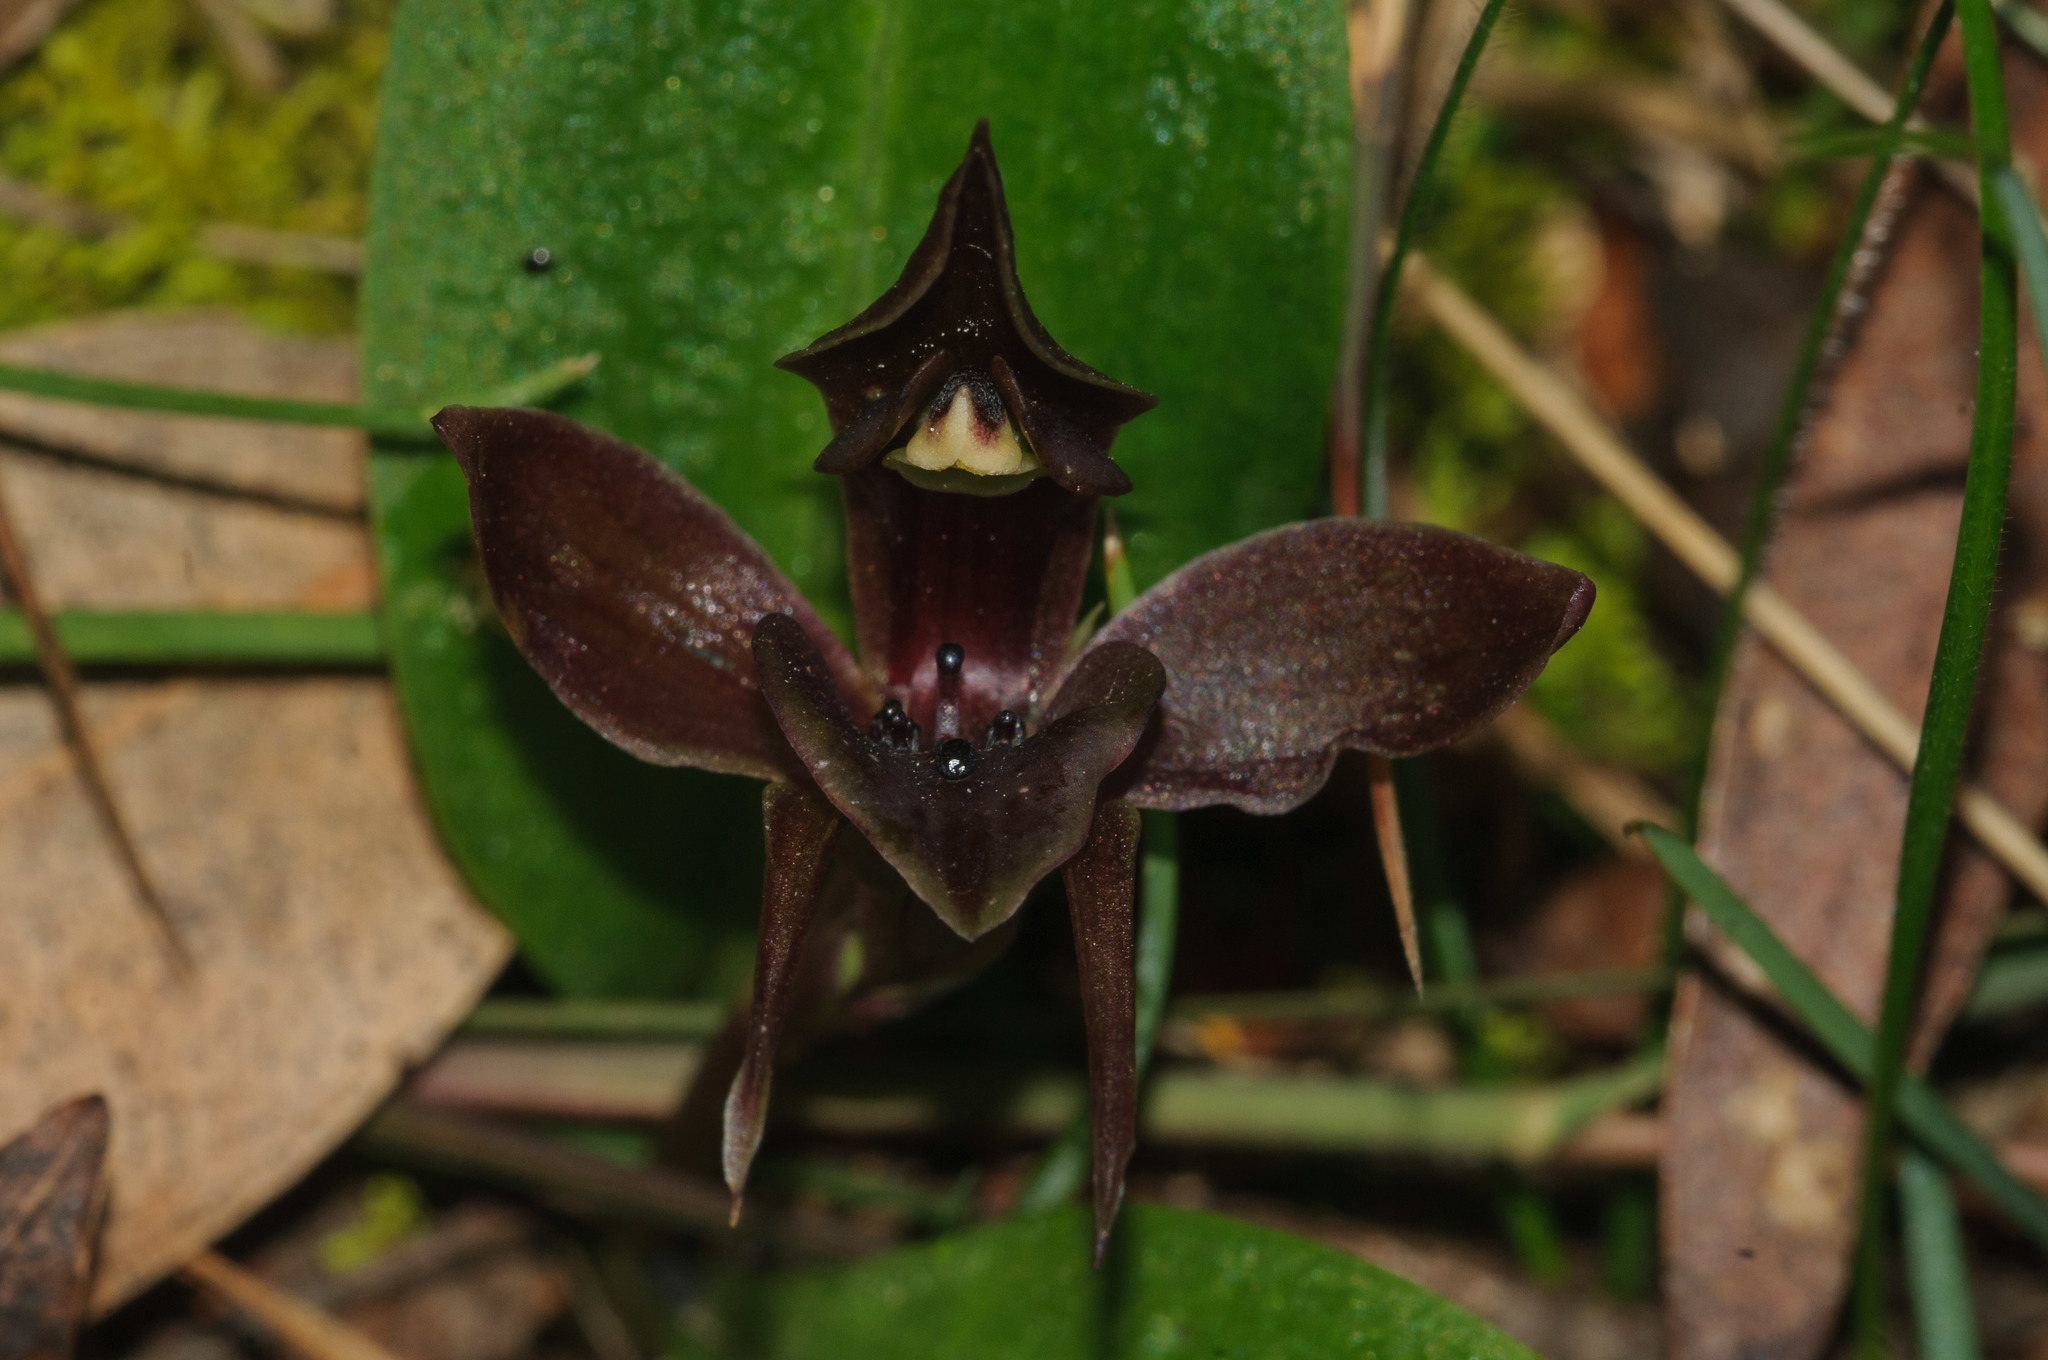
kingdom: Plantae
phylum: Tracheophyta
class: Liliopsida
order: Asparagales
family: Orchidaceae
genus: Chiloglottis
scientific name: Chiloglottis valida
